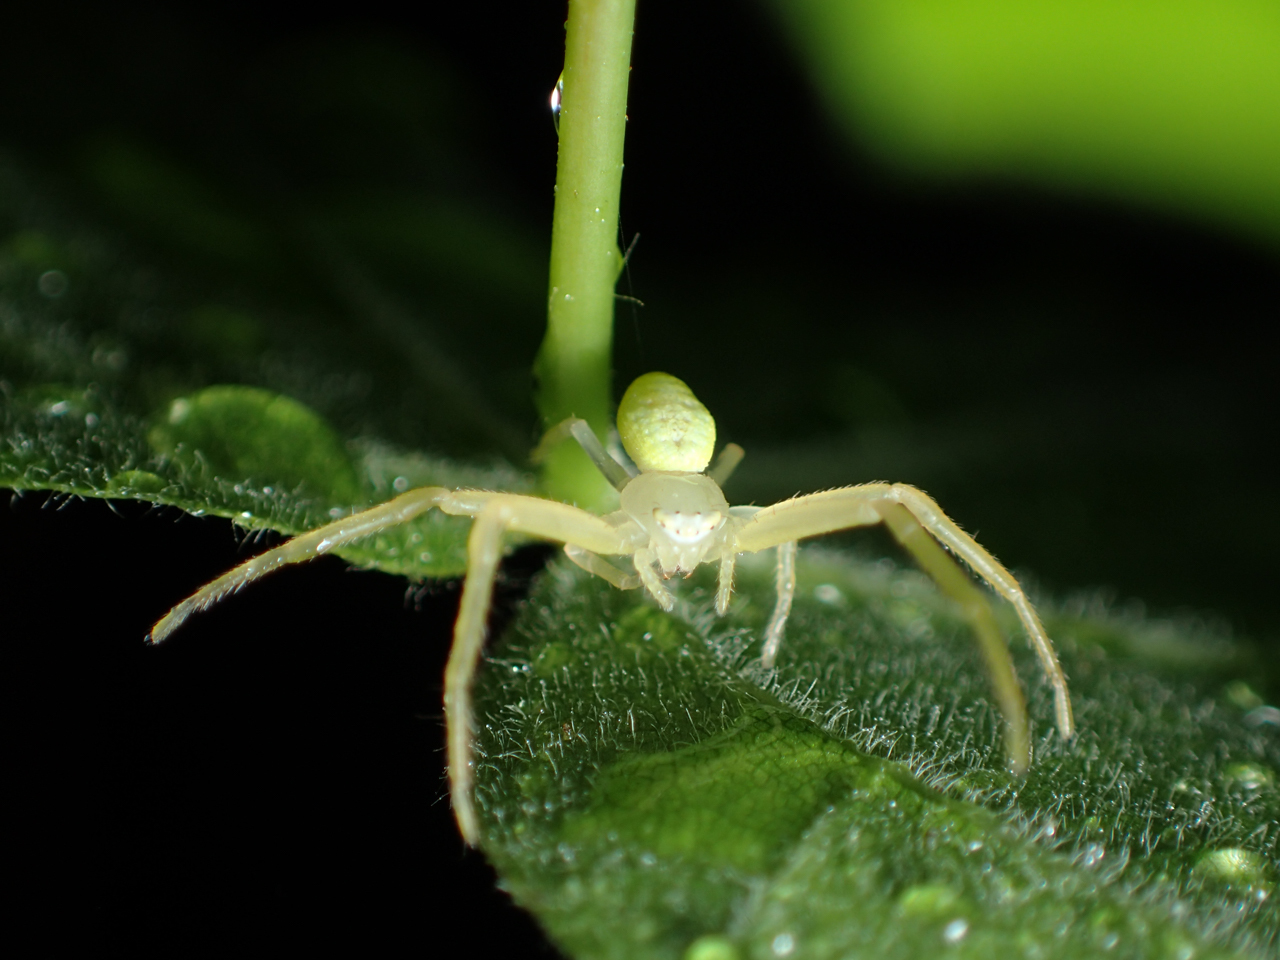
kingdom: Animalia
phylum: Arthropoda
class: Arachnida
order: Araneae
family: Thomisidae
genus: Misumessus
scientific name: Misumessus oblongus
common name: American green crab spider
